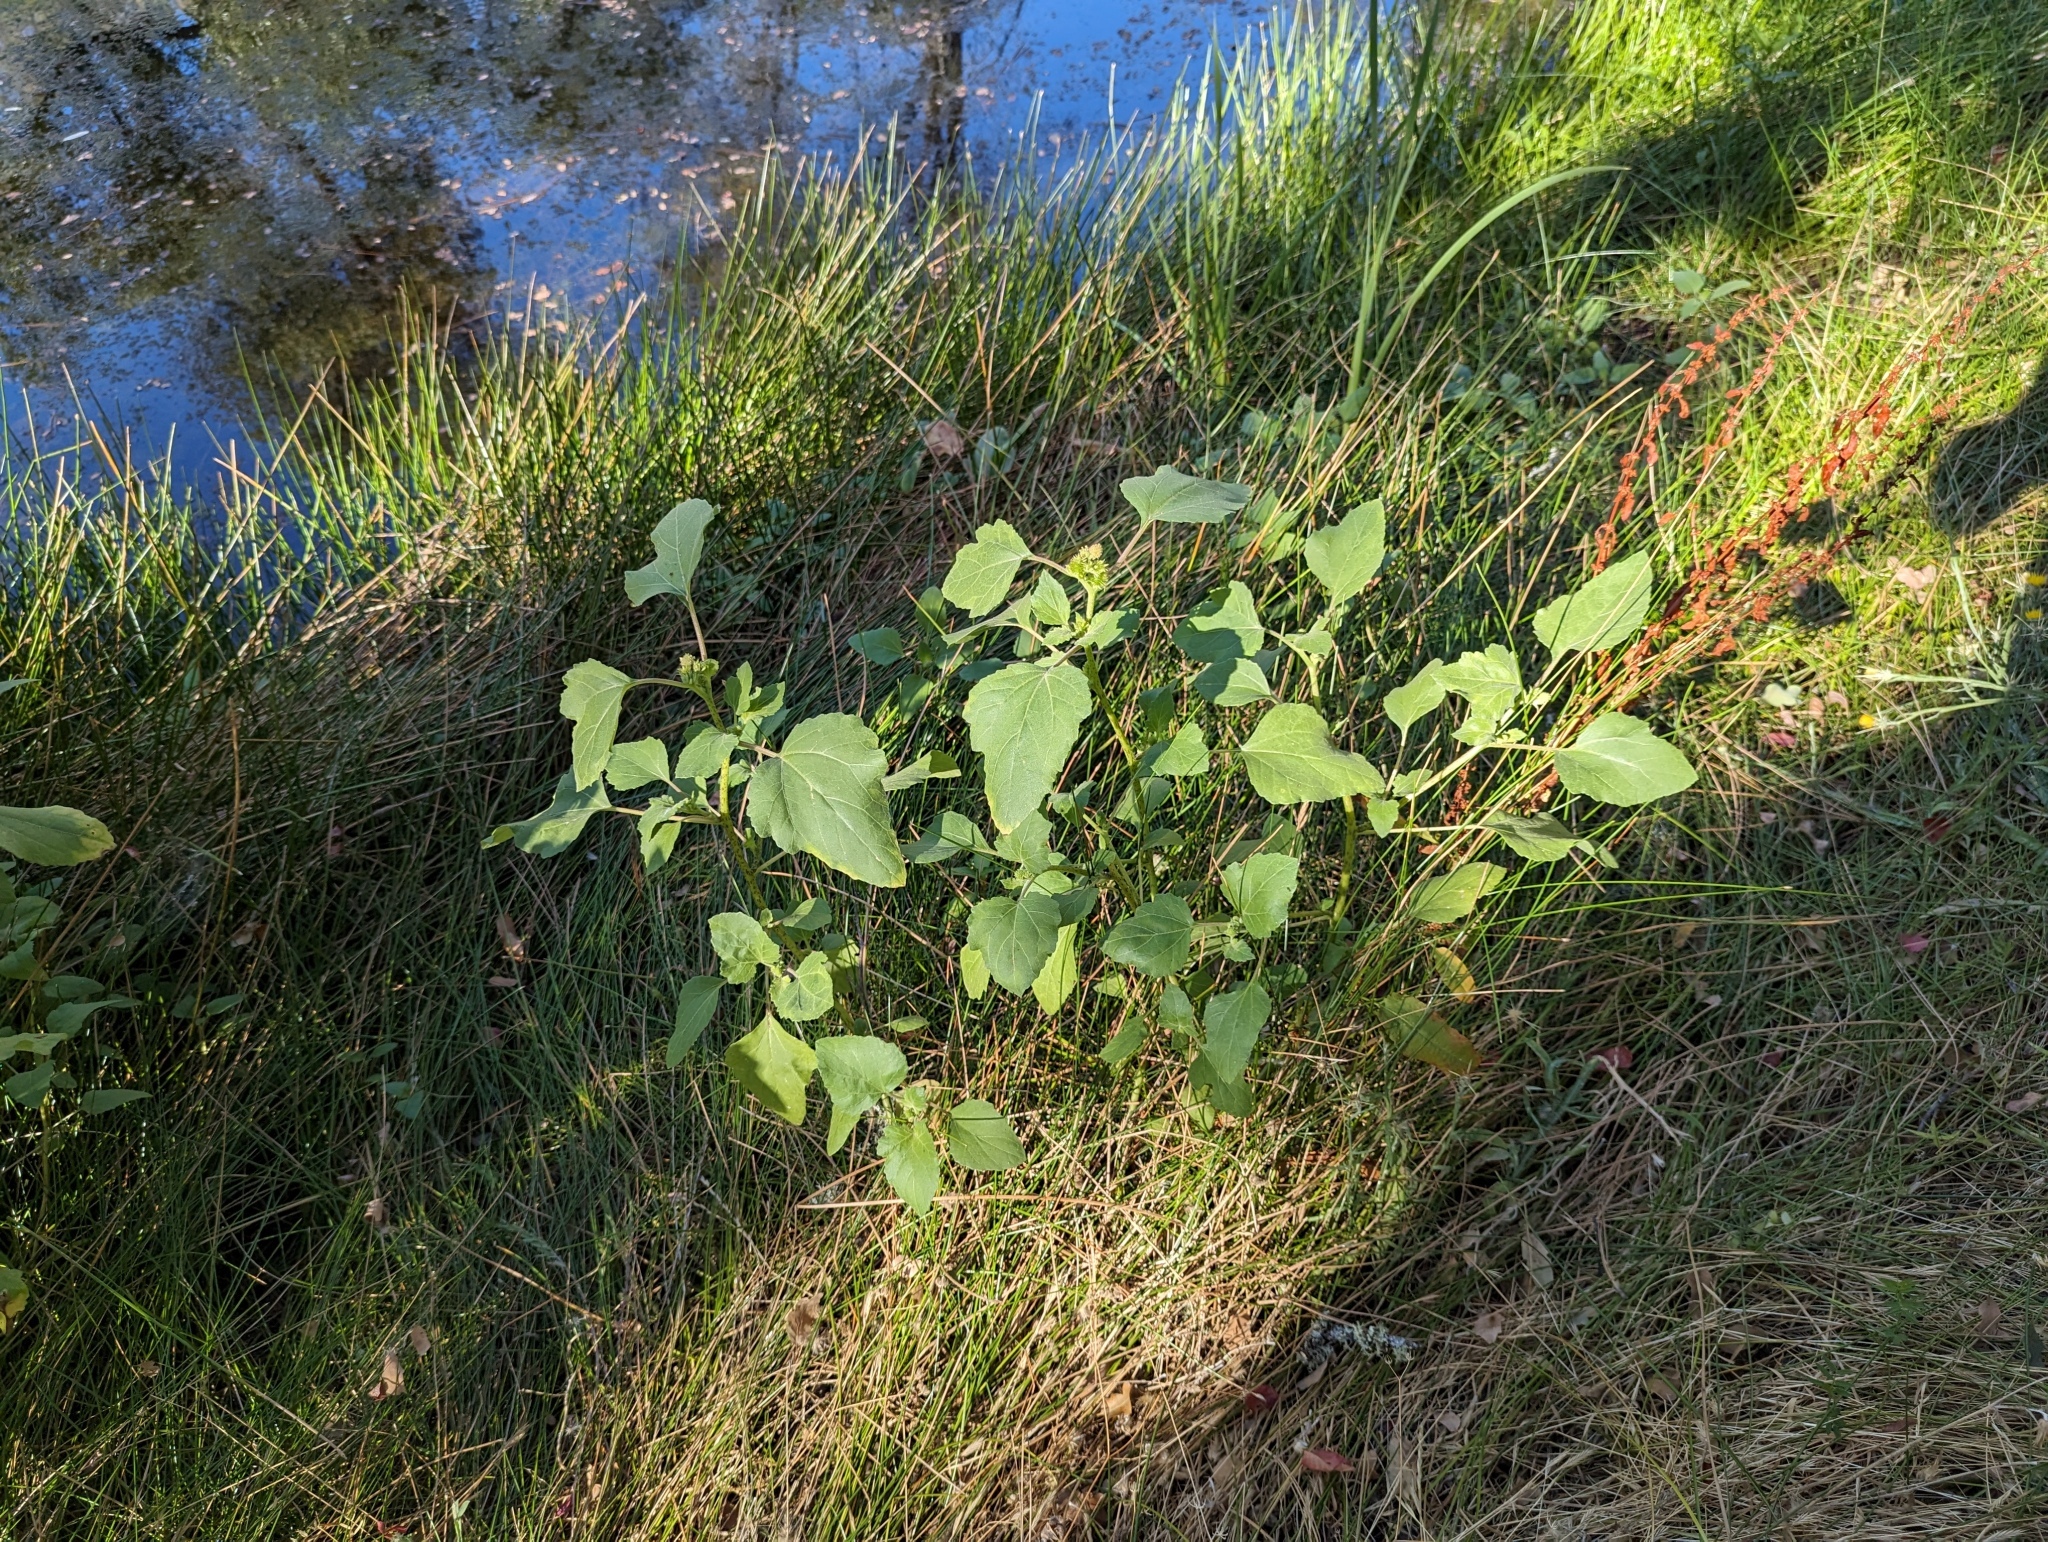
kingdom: Plantae
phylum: Tracheophyta
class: Magnoliopsida
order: Asterales
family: Asteraceae
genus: Xanthium
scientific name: Xanthium orientale
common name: Californian burr
